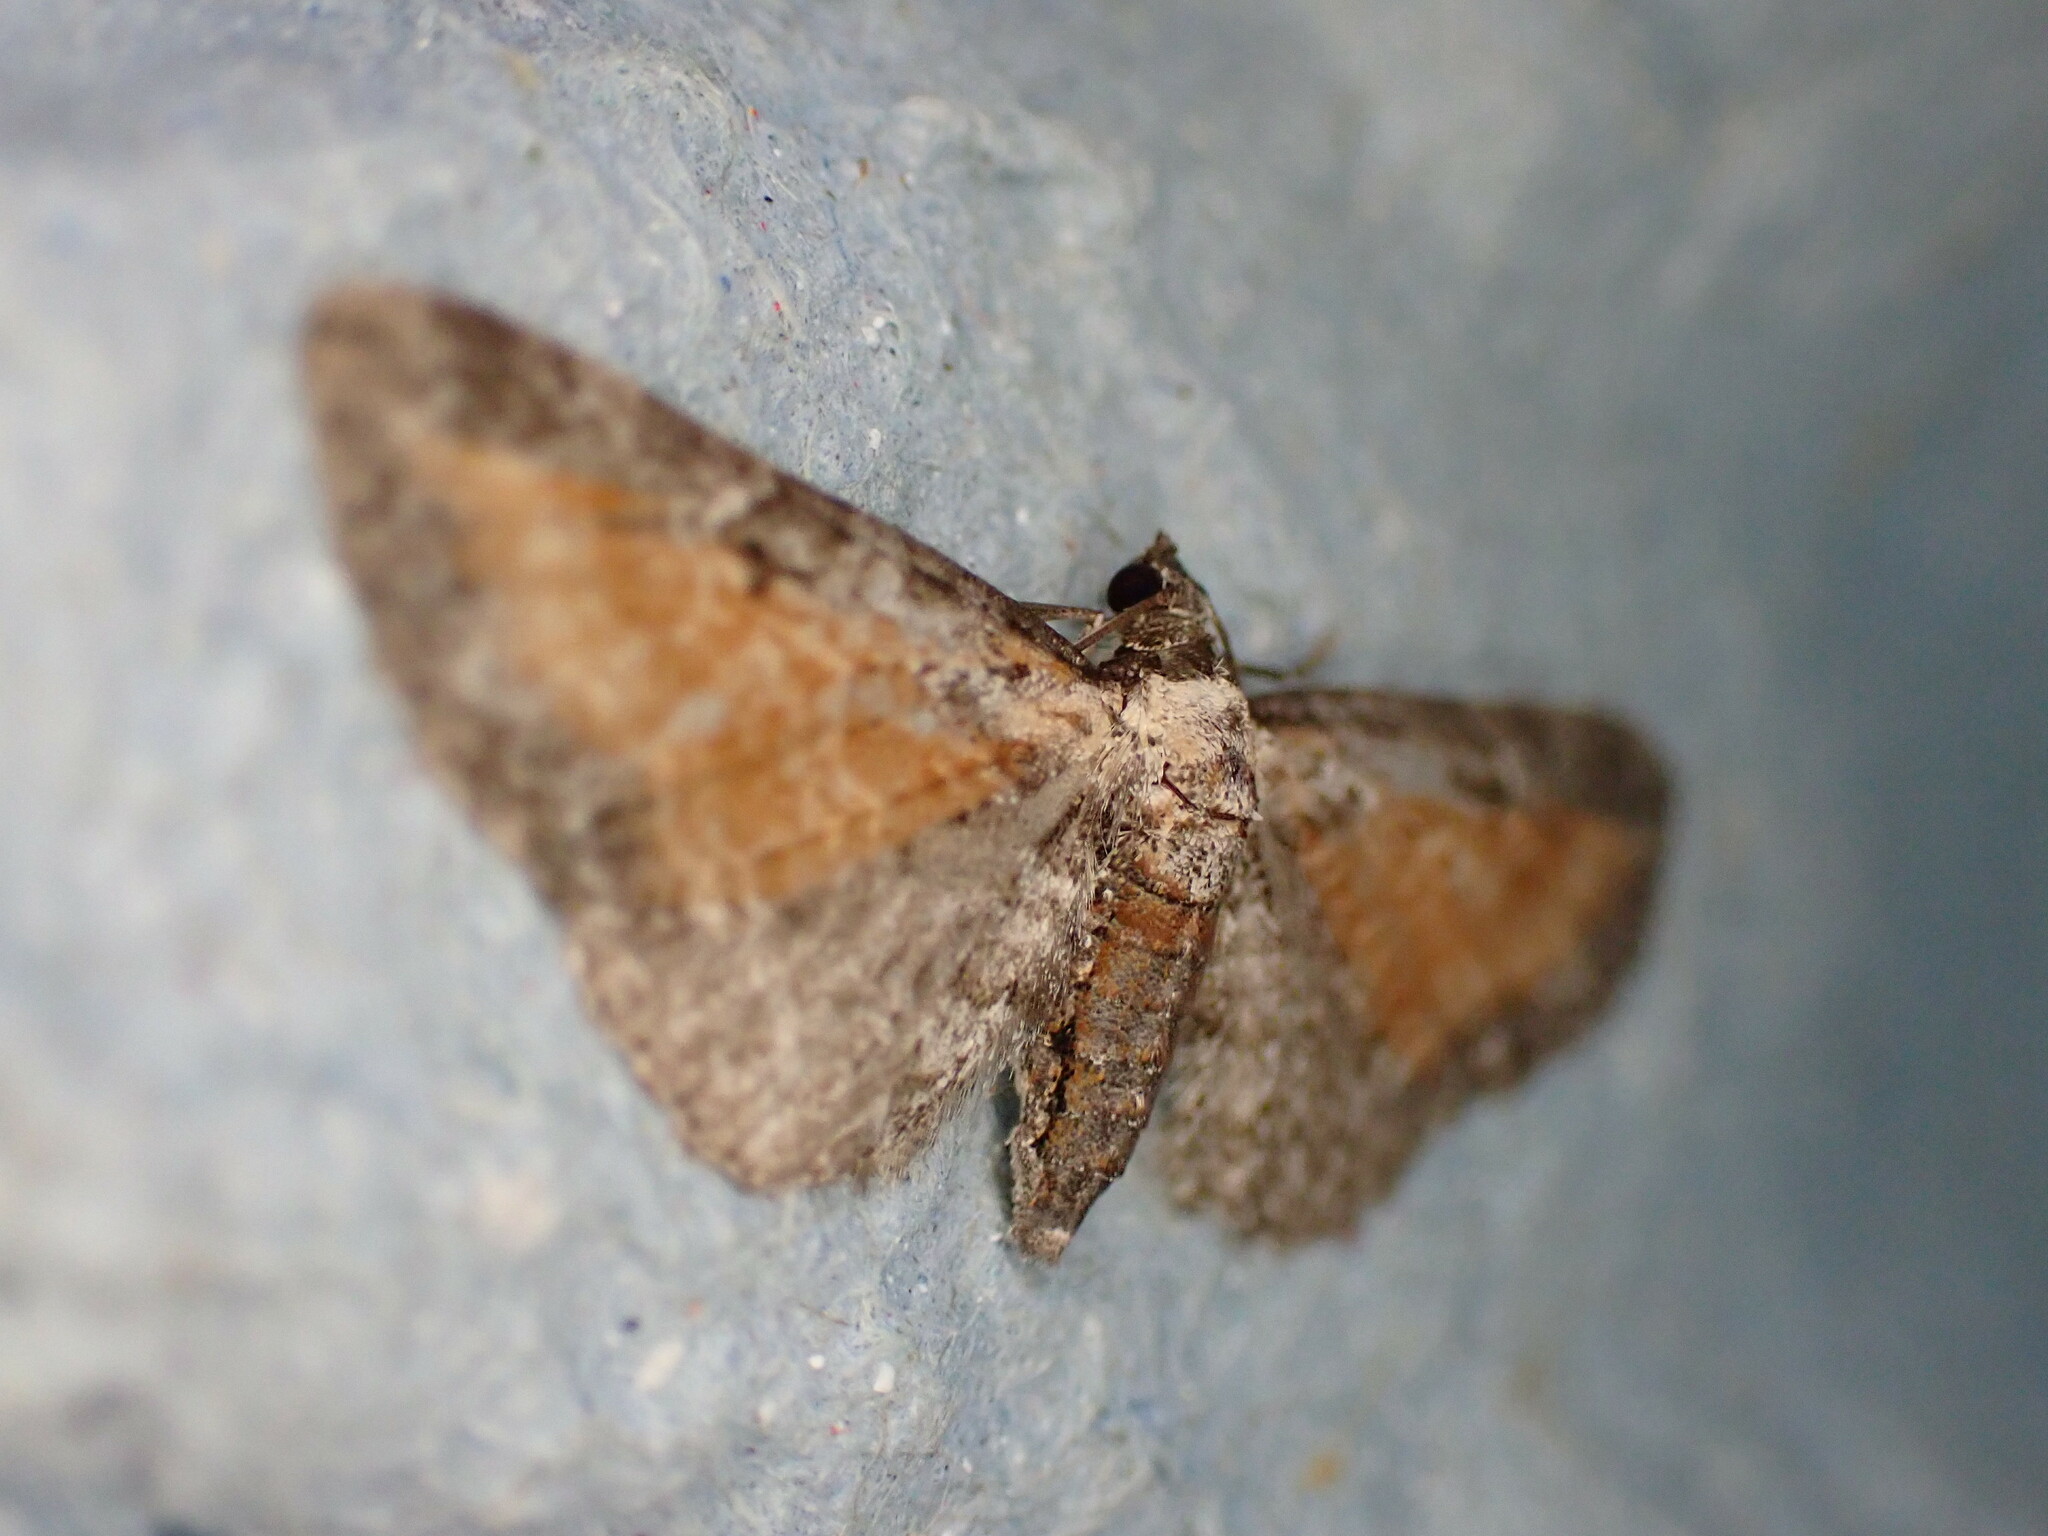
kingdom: Animalia
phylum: Arthropoda
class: Insecta
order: Lepidoptera
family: Geometridae
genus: Eupithecia
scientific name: Eupithecia icterata
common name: Tawny speckled pug
